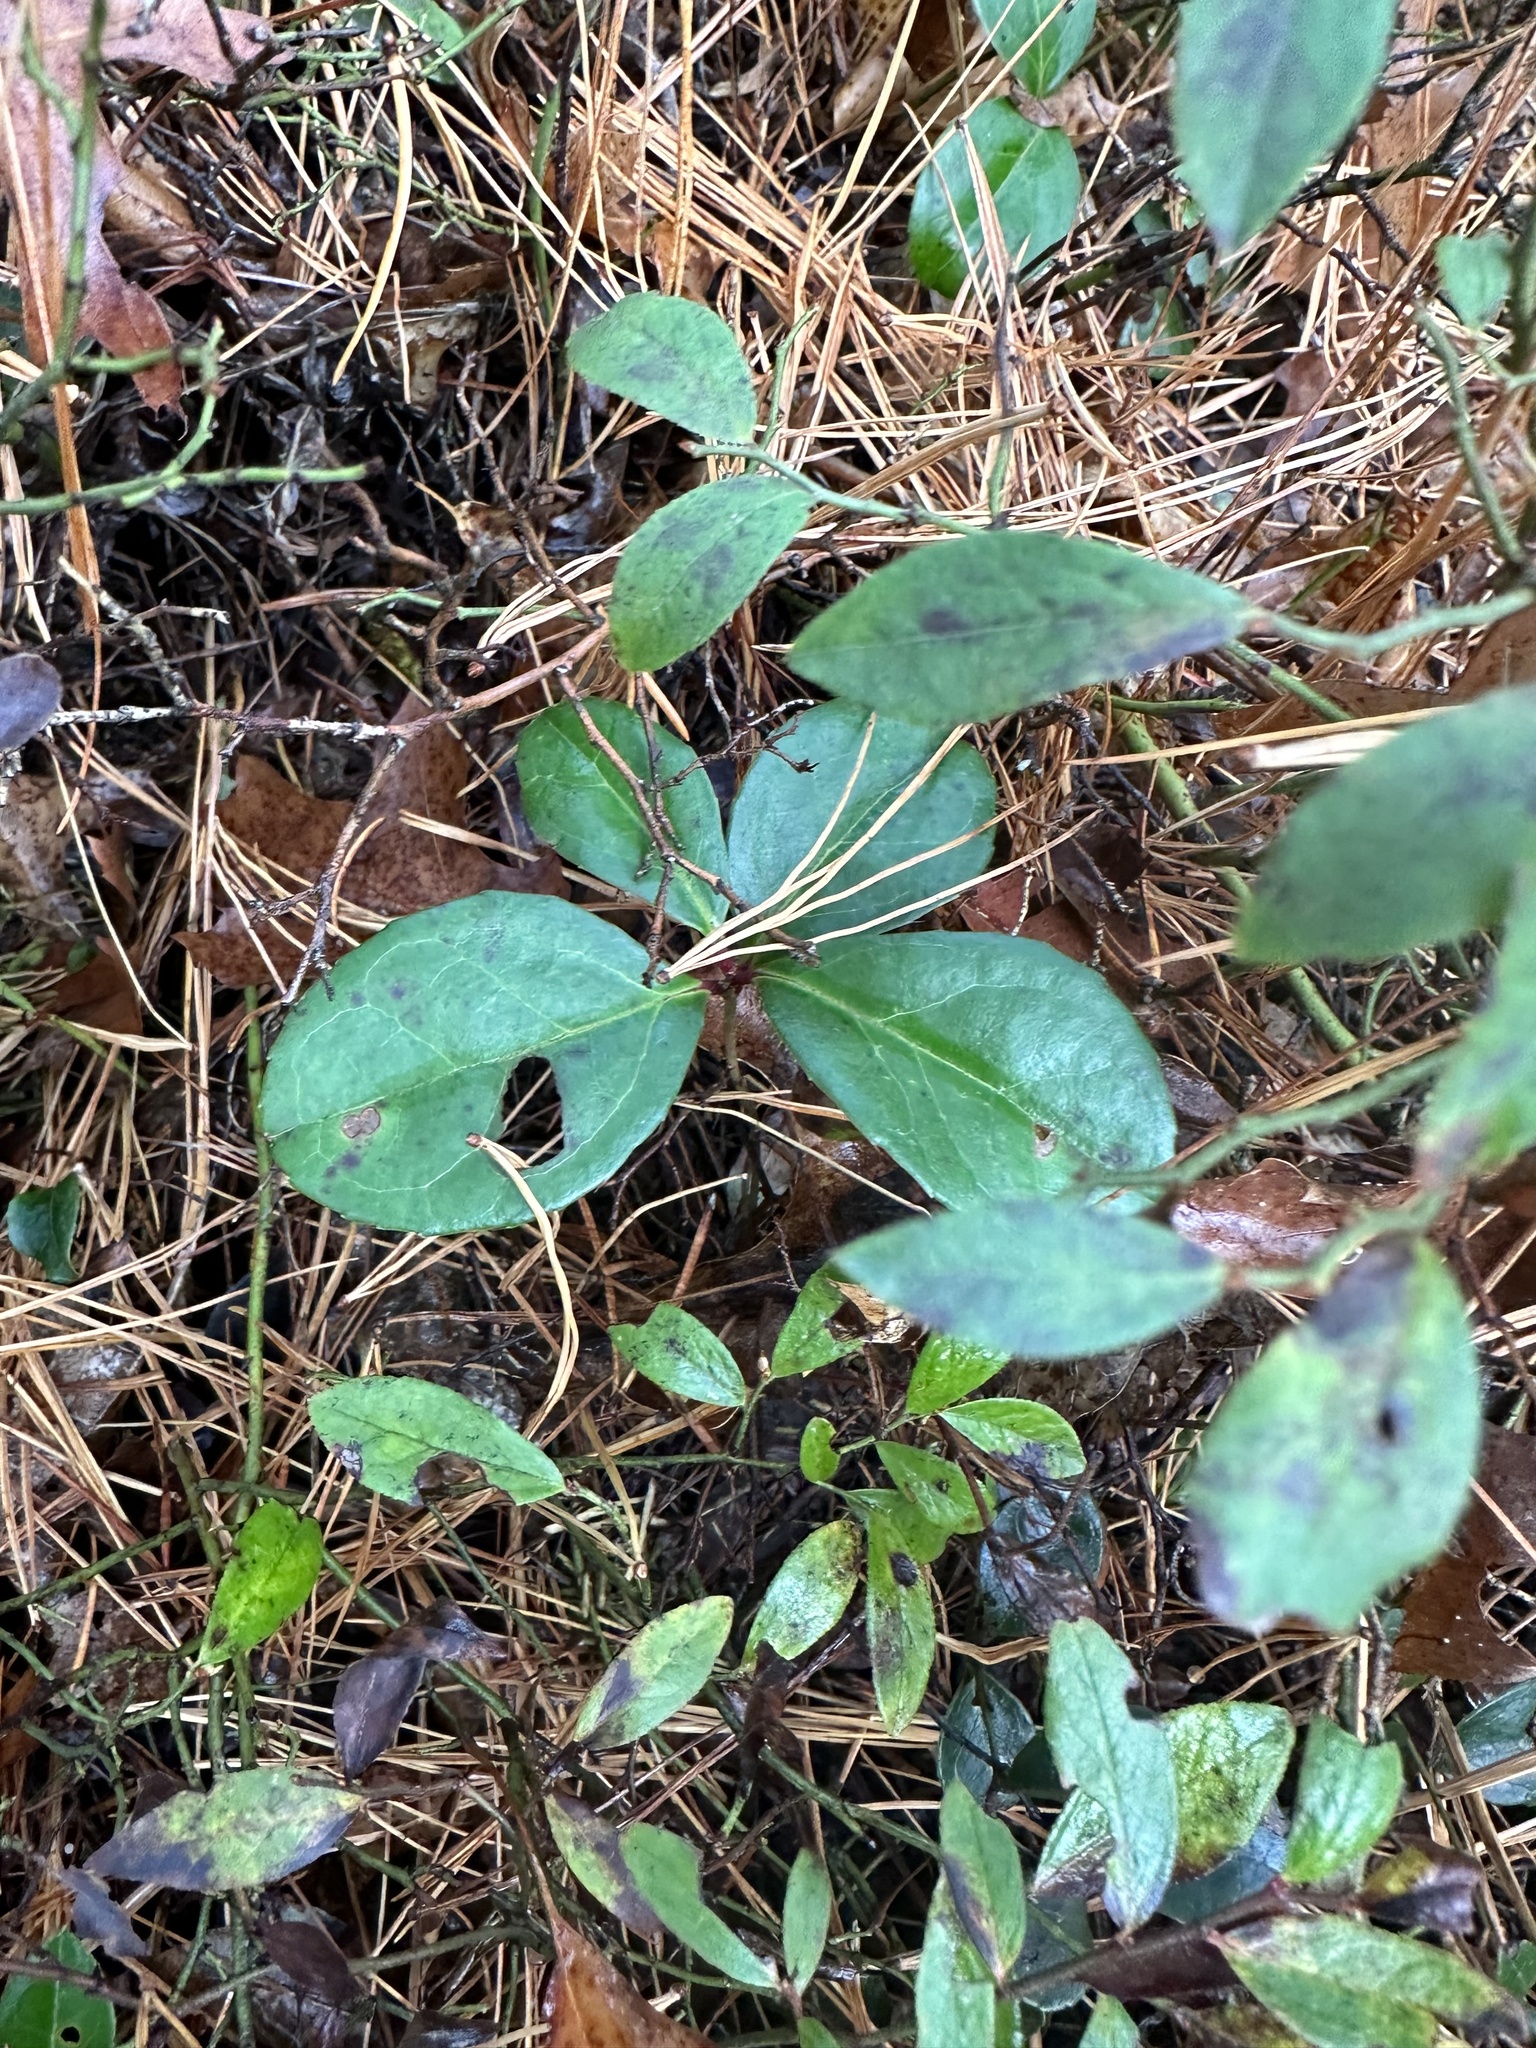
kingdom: Plantae
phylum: Tracheophyta
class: Magnoliopsida
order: Ericales
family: Ericaceae
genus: Gaultheria
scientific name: Gaultheria procumbens
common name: Checkerberry
